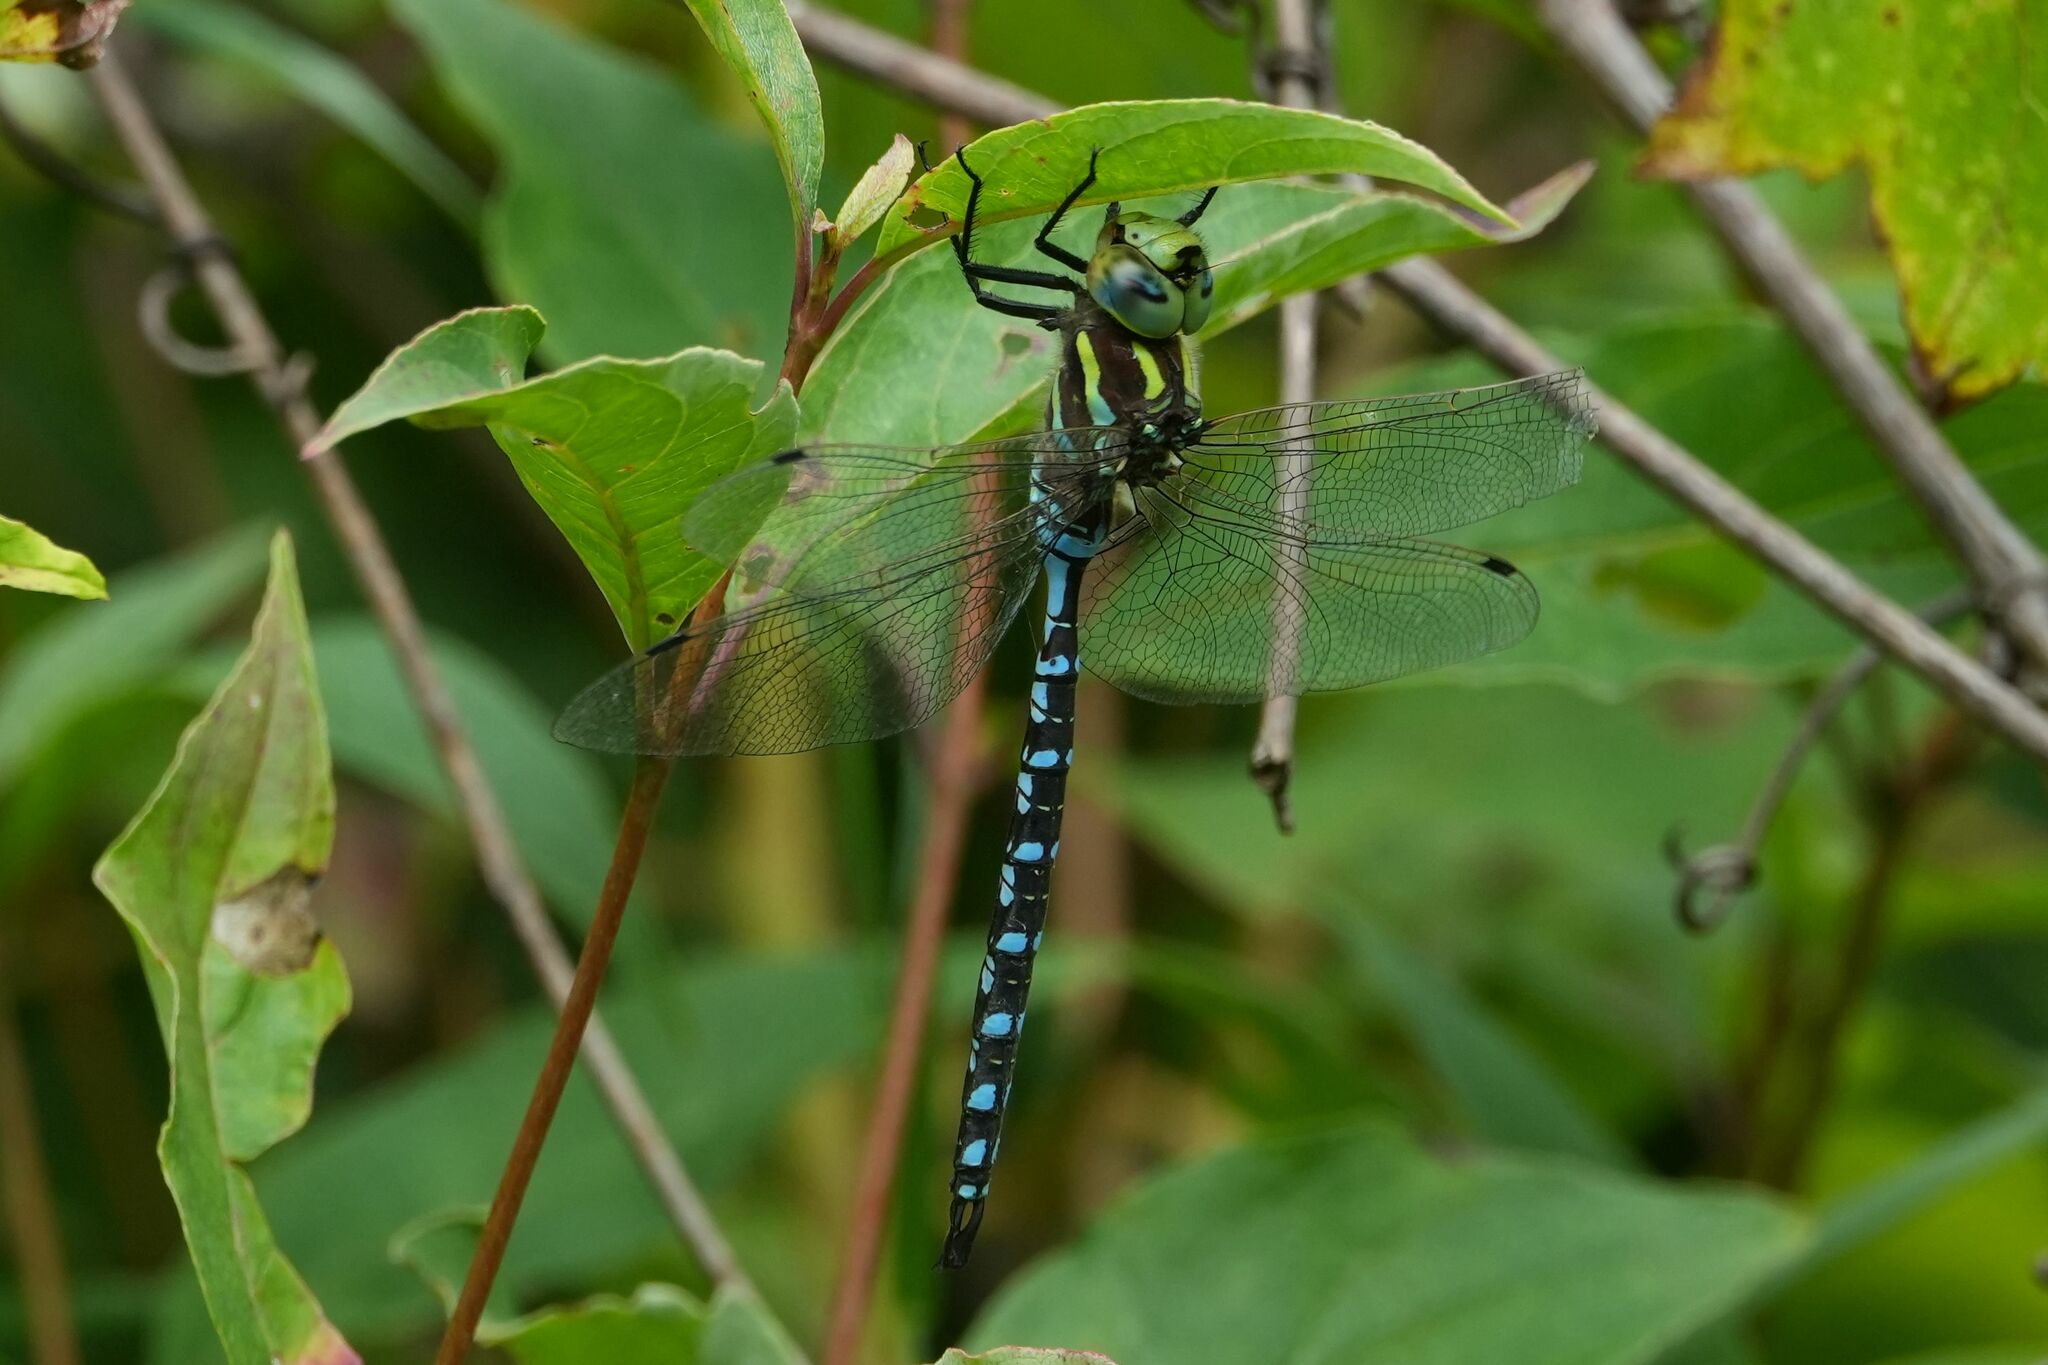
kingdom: Animalia
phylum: Arthropoda
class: Insecta
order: Odonata
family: Aeshnidae
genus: Aeshna
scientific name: Aeshna constricta
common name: Lance-tipped darner
